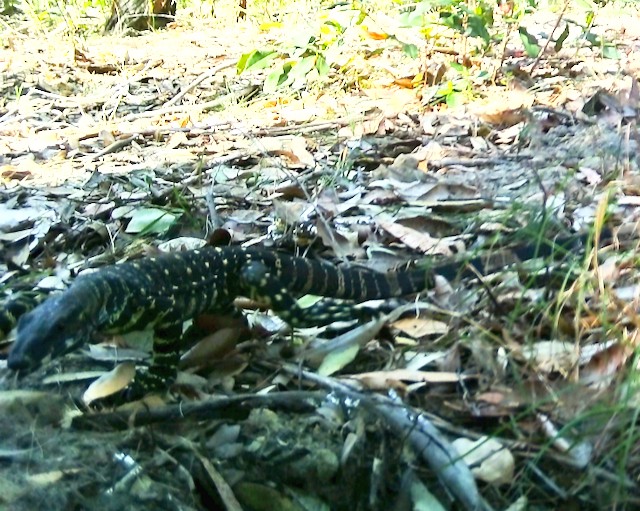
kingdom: Animalia
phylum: Chordata
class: Squamata
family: Varanidae
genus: Varanus
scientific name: Varanus varius
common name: Lace monitor
